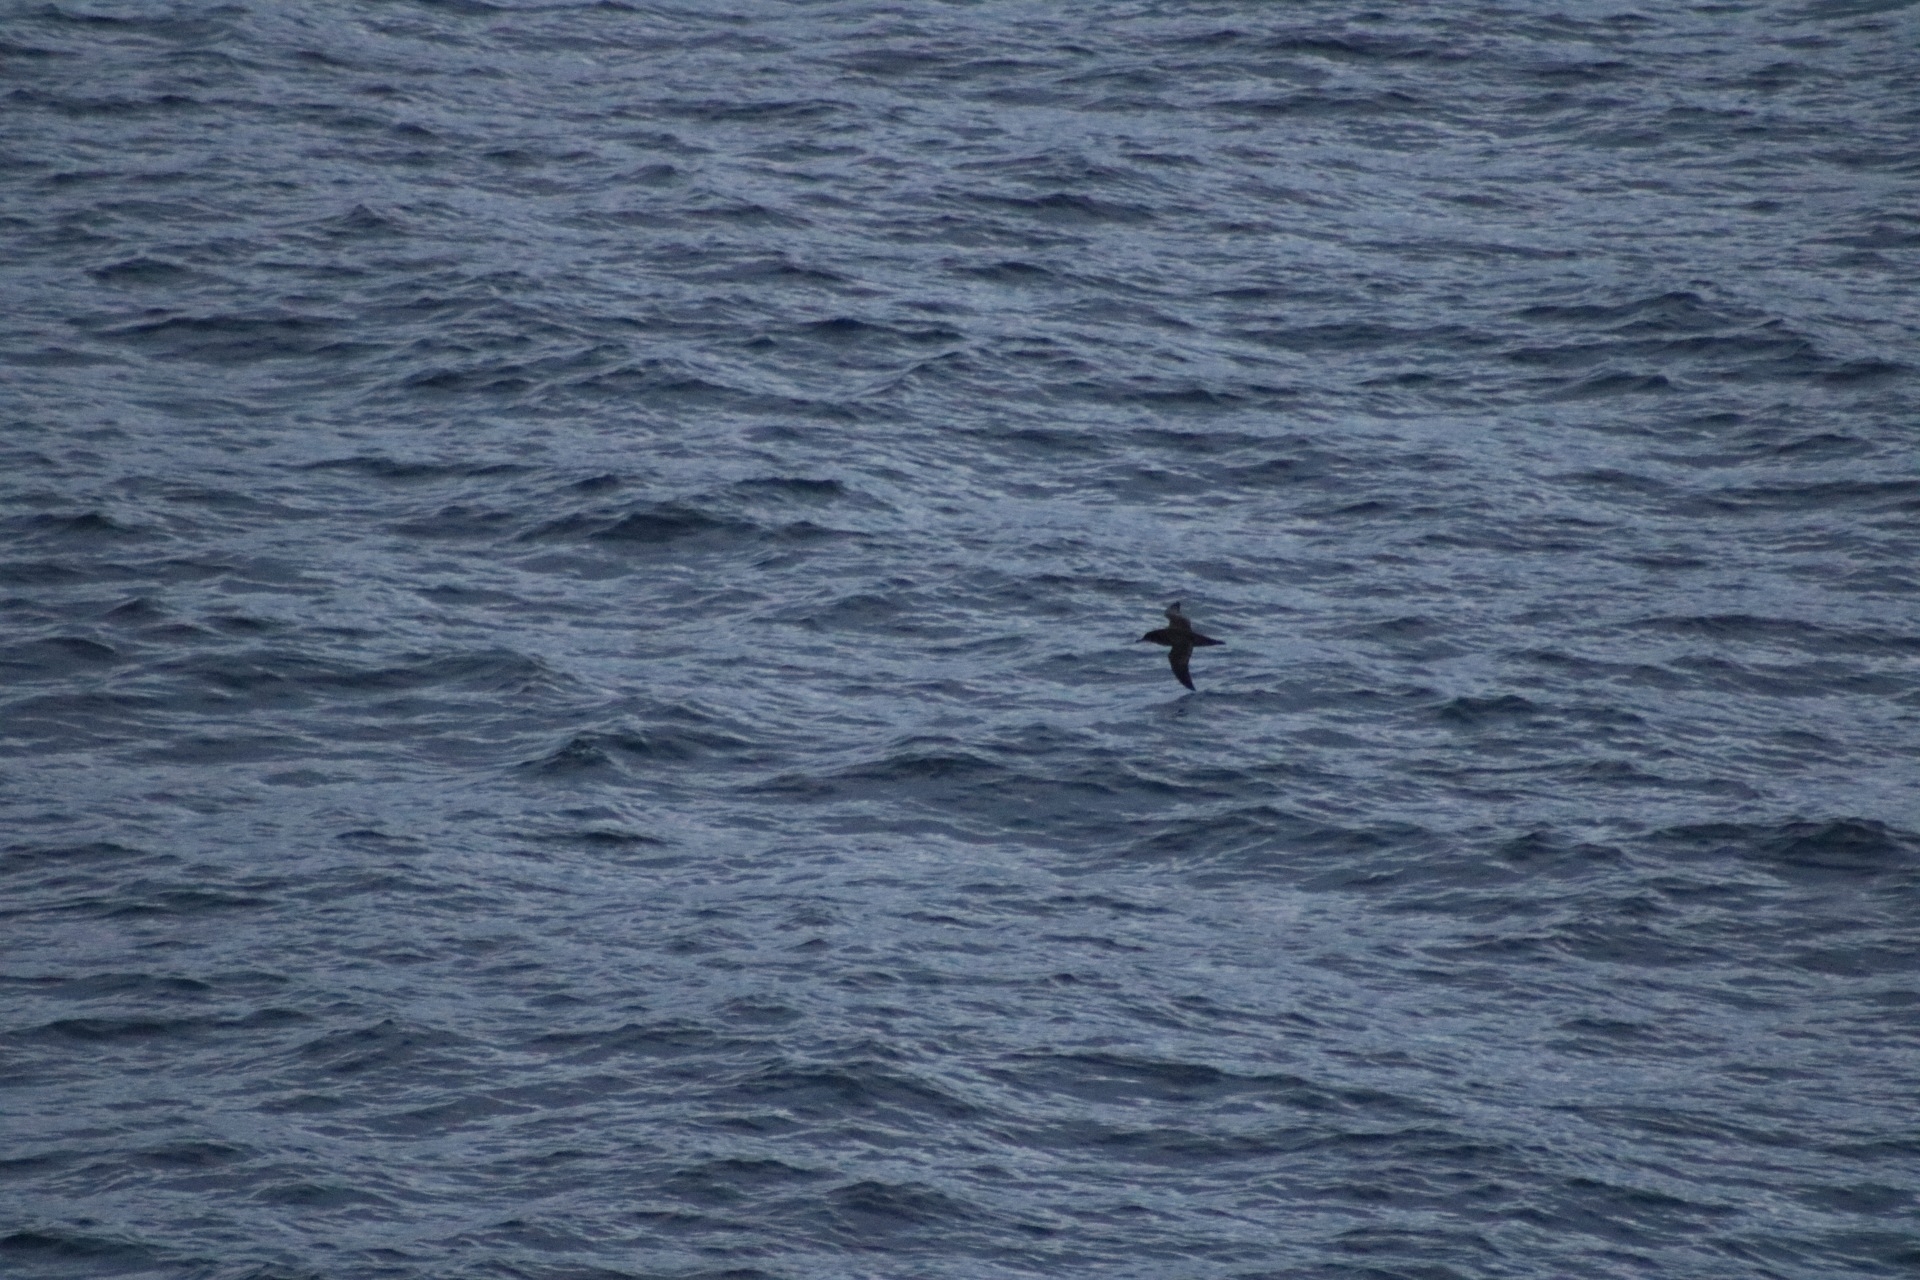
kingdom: Animalia
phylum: Chordata
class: Aves
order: Procellariiformes
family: Procellariidae
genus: Puffinus
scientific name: Puffinus griseus
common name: Sooty shearwater
